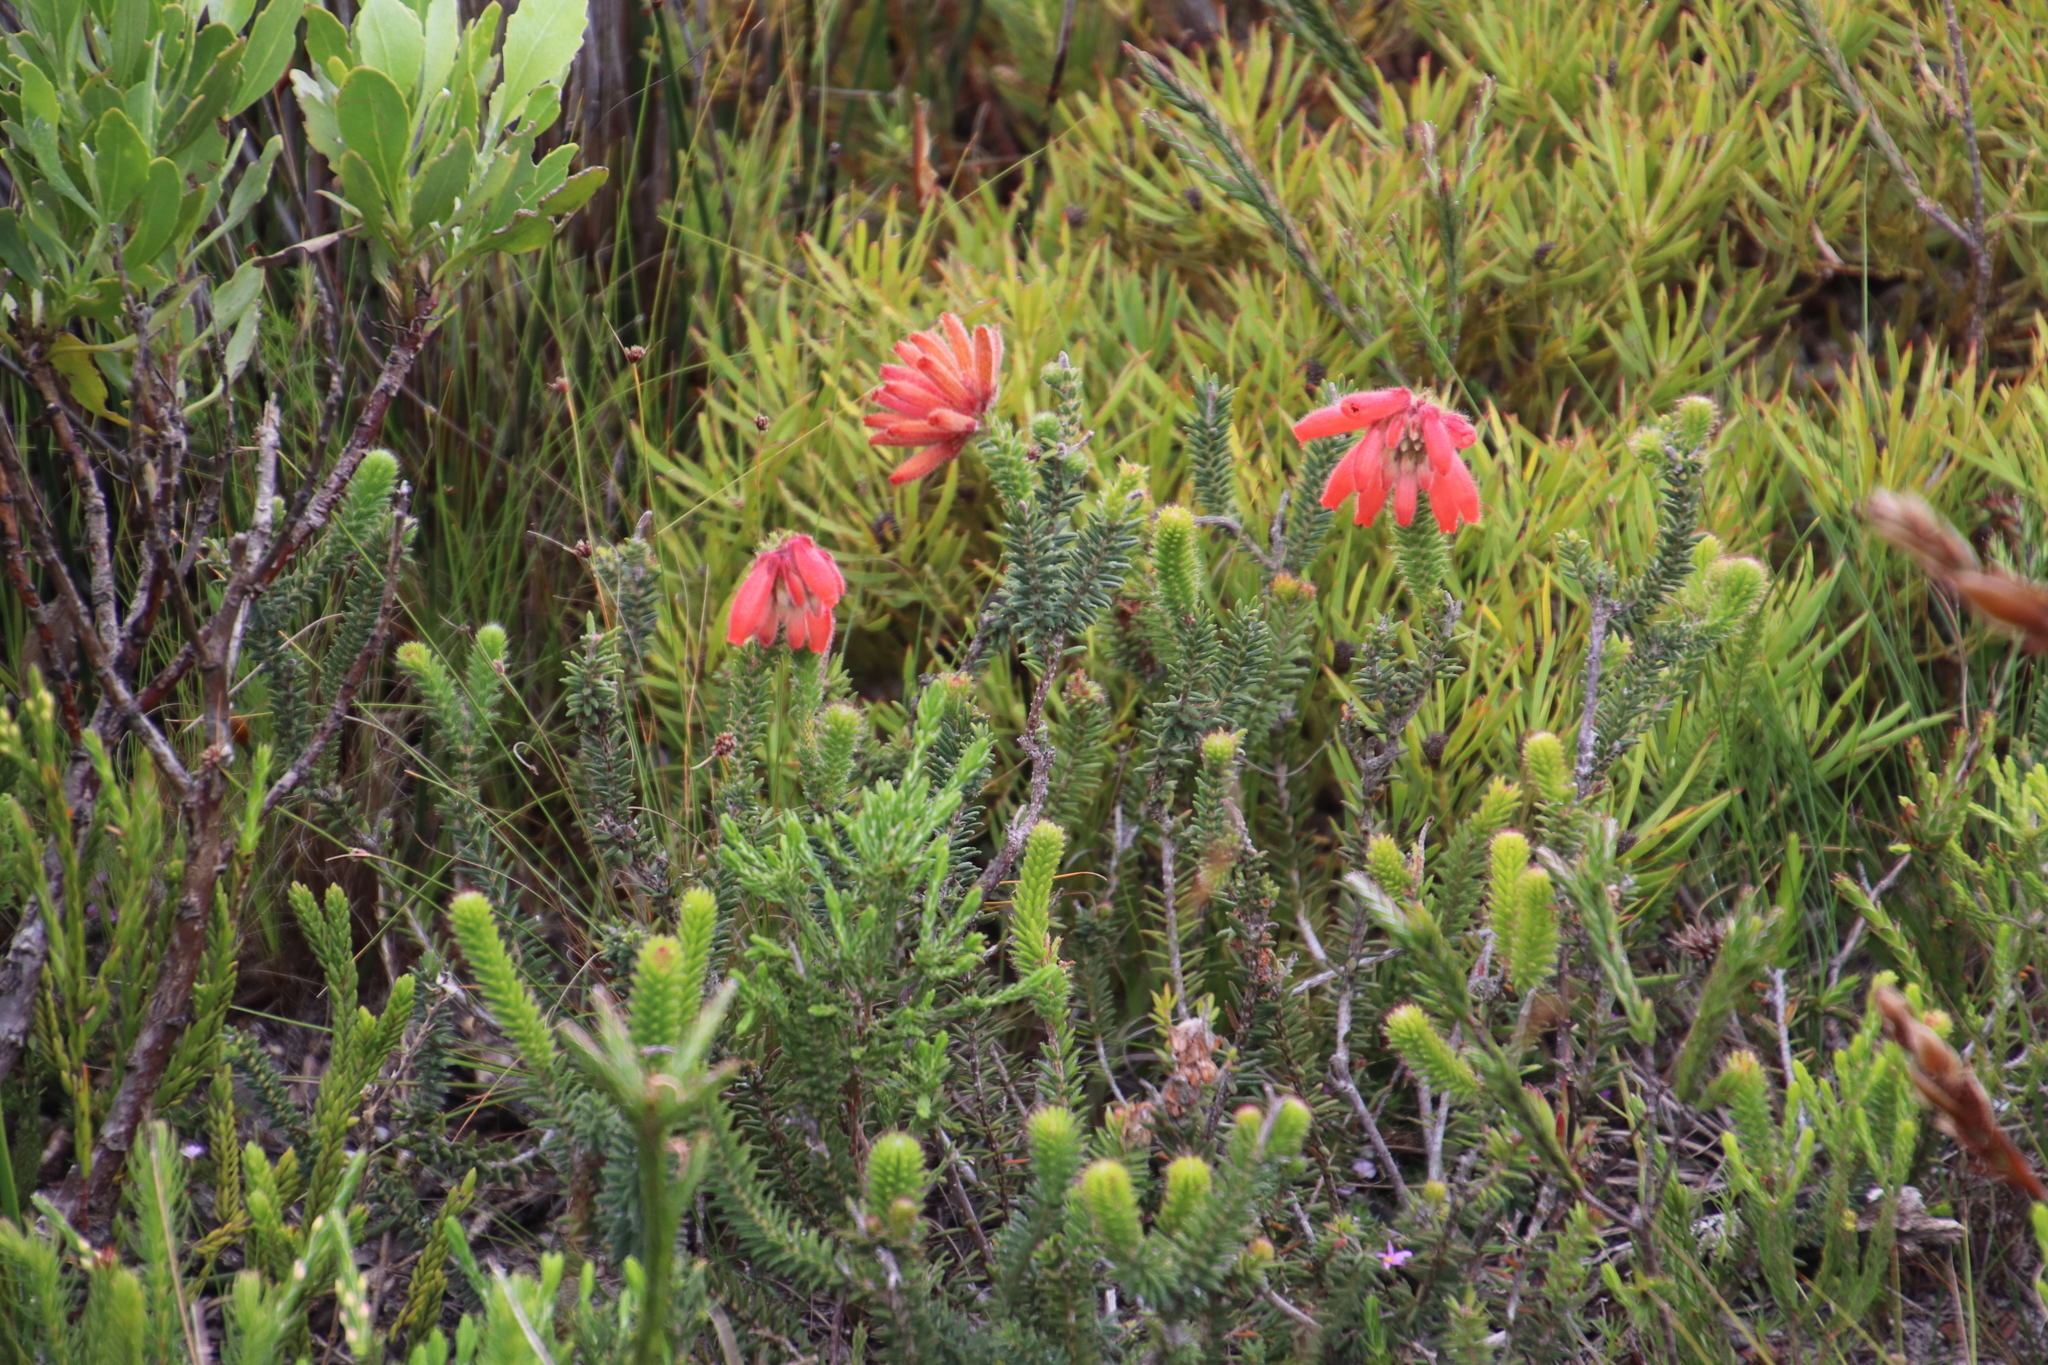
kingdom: Plantae
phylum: Tracheophyta
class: Magnoliopsida
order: Ericales
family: Ericaceae
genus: Erica
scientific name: Erica cerinthoides
